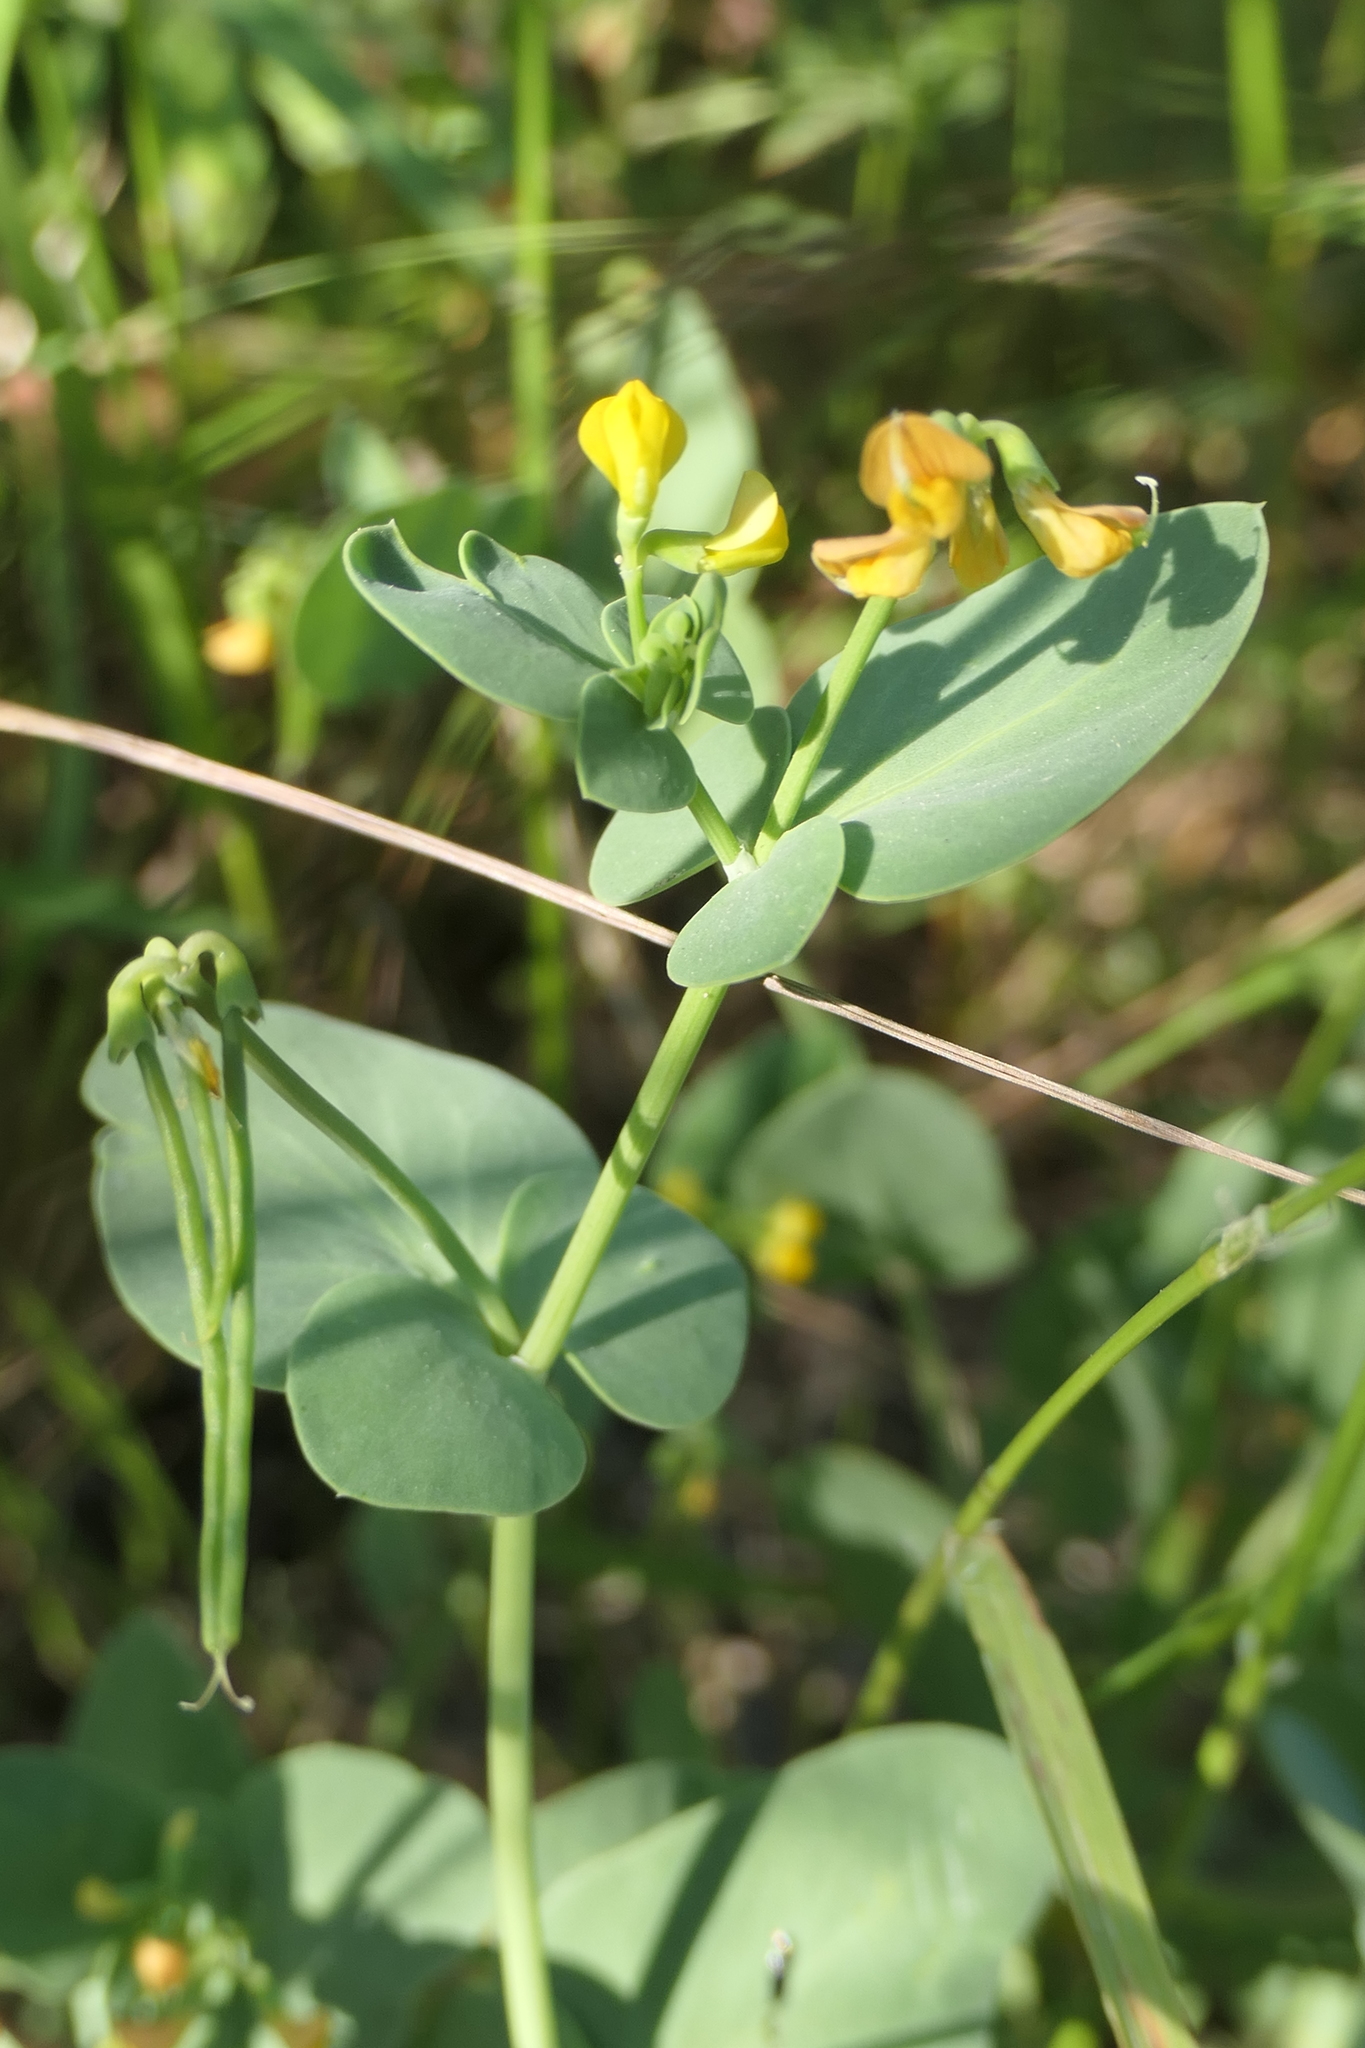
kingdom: Plantae
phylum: Tracheophyta
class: Magnoliopsida
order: Fabales
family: Fabaceae
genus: Coronilla
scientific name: Coronilla scorpioides
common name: Annual scorpion-vetch
